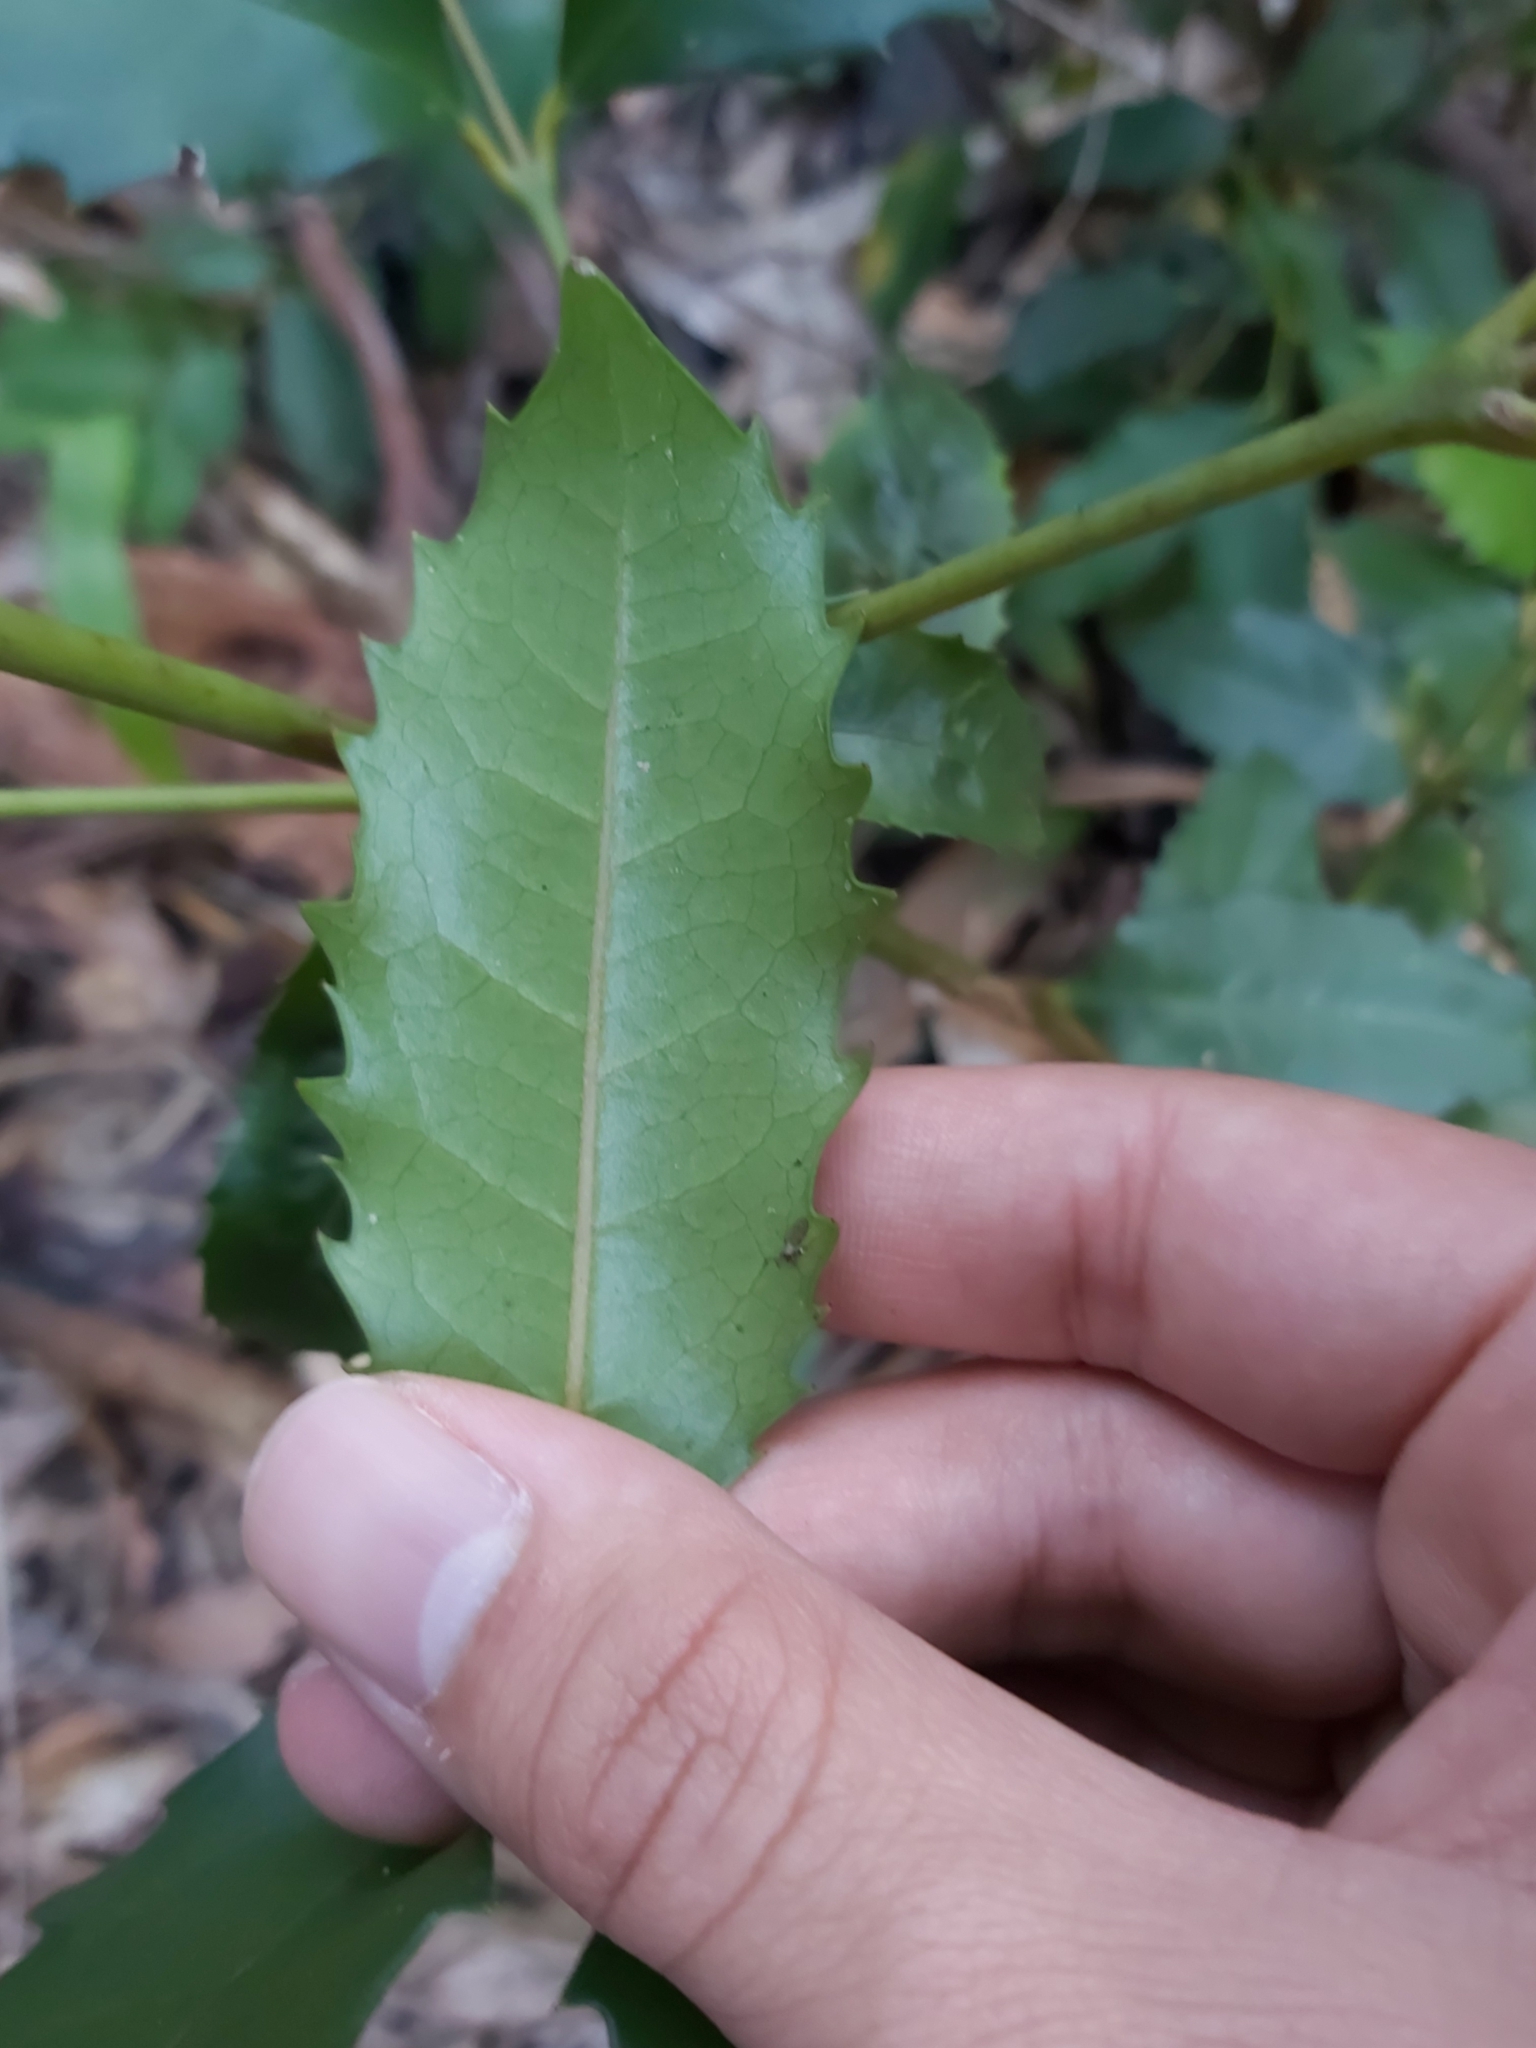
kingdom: Plantae
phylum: Tracheophyta
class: Magnoliopsida
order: Laurales
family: Atherospermataceae
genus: Doryphora
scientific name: Doryphora sassafras
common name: Golden-sassafras
